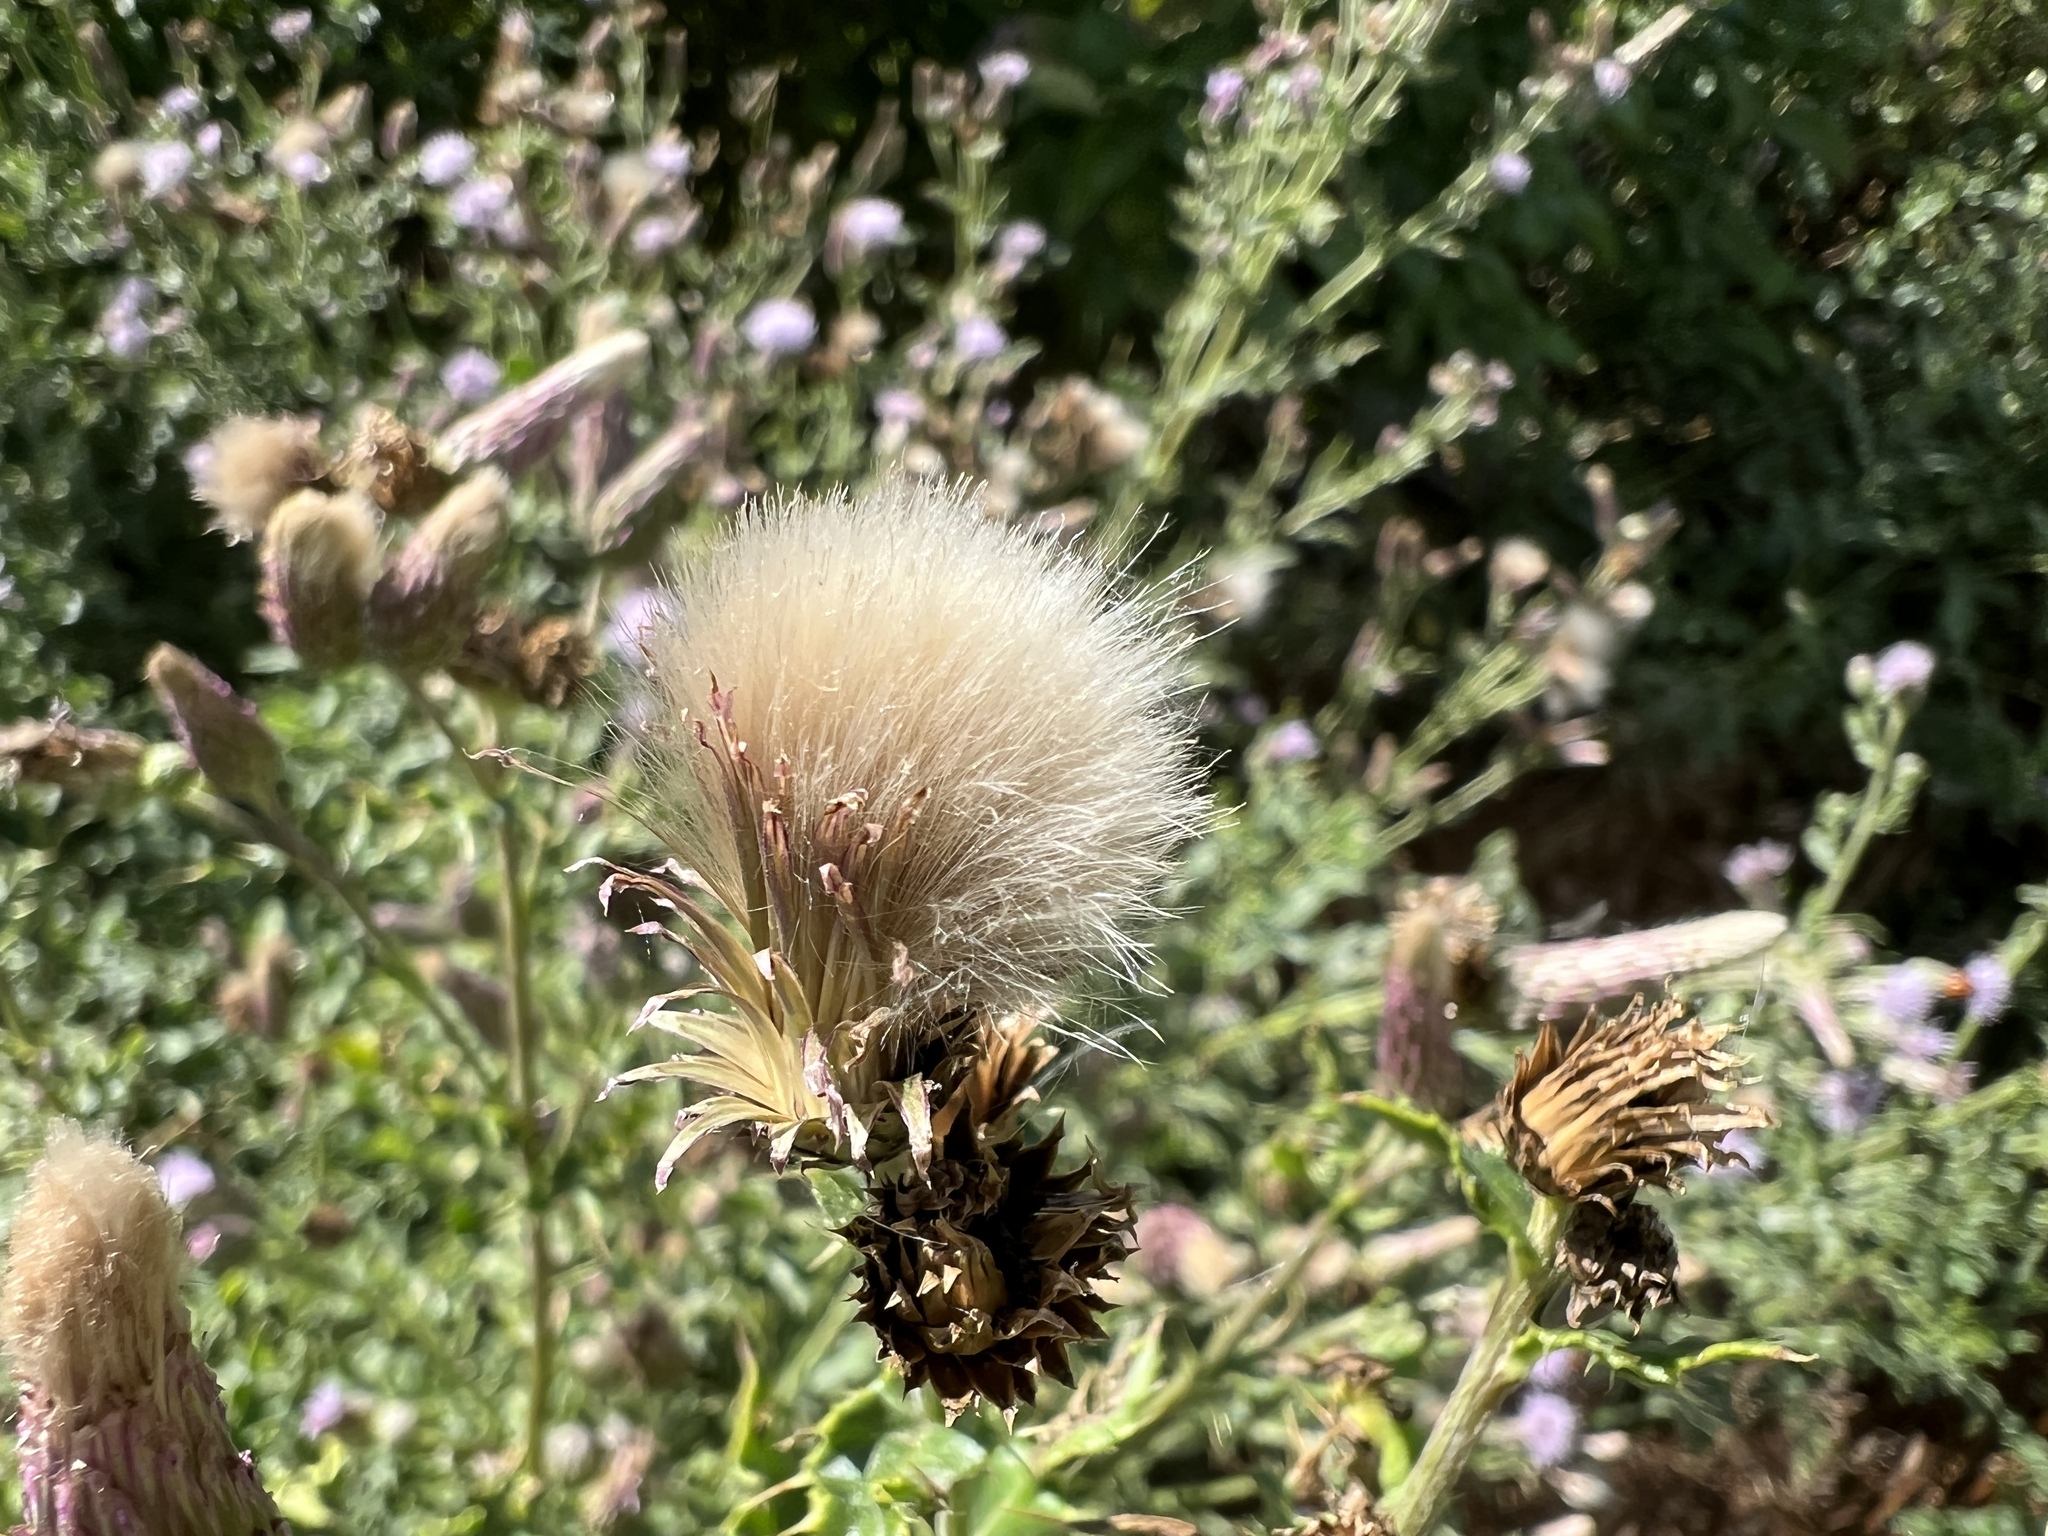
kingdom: Plantae
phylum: Tracheophyta
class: Magnoliopsida
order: Asterales
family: Asteraceae
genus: Cirsium
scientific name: Cirsium arvense
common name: Creeping thistle
